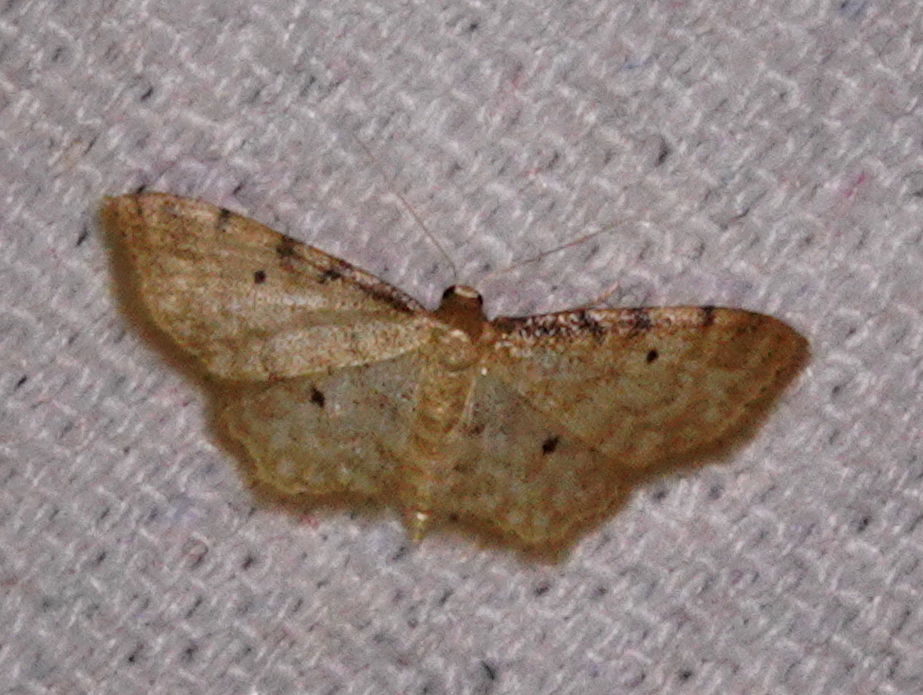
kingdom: Animalia
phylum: Arthropoda
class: Insecta
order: Lepidoptera
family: Geometridae
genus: Idaea
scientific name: Idaea fuscovenosa
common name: Dwarf cream wave
